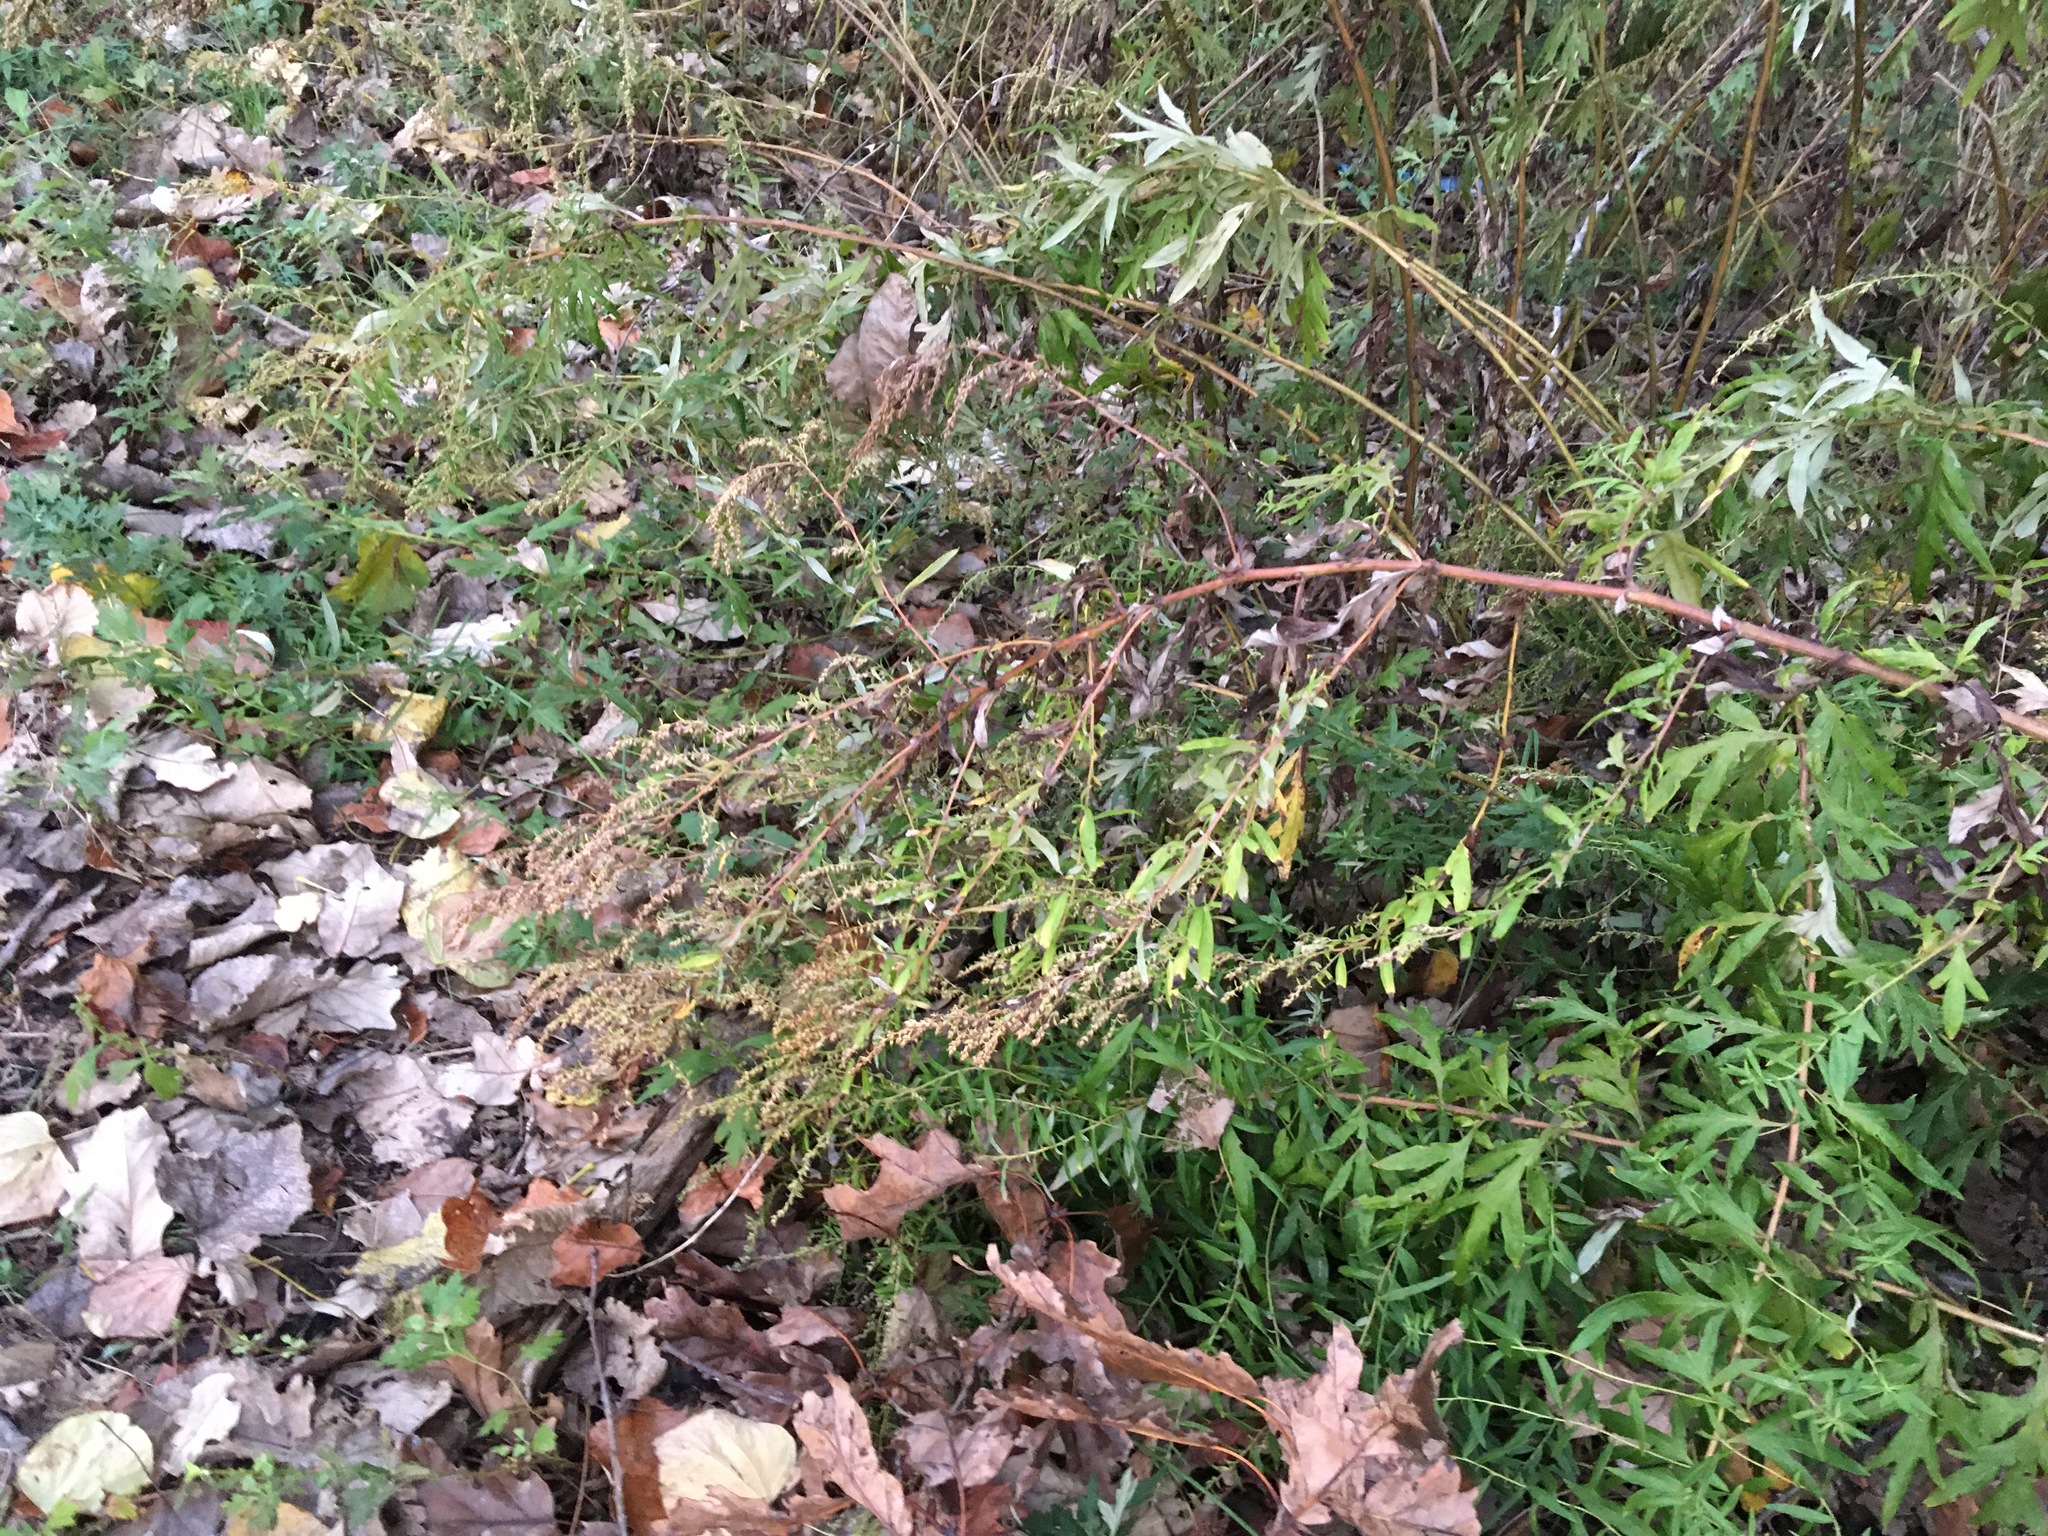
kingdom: Plantae
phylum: Tracheophyta
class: Magnoliopsida
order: Asterales
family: Asteraceae
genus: Artemisia
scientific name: Artemisia vulgaris
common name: Mugwort
